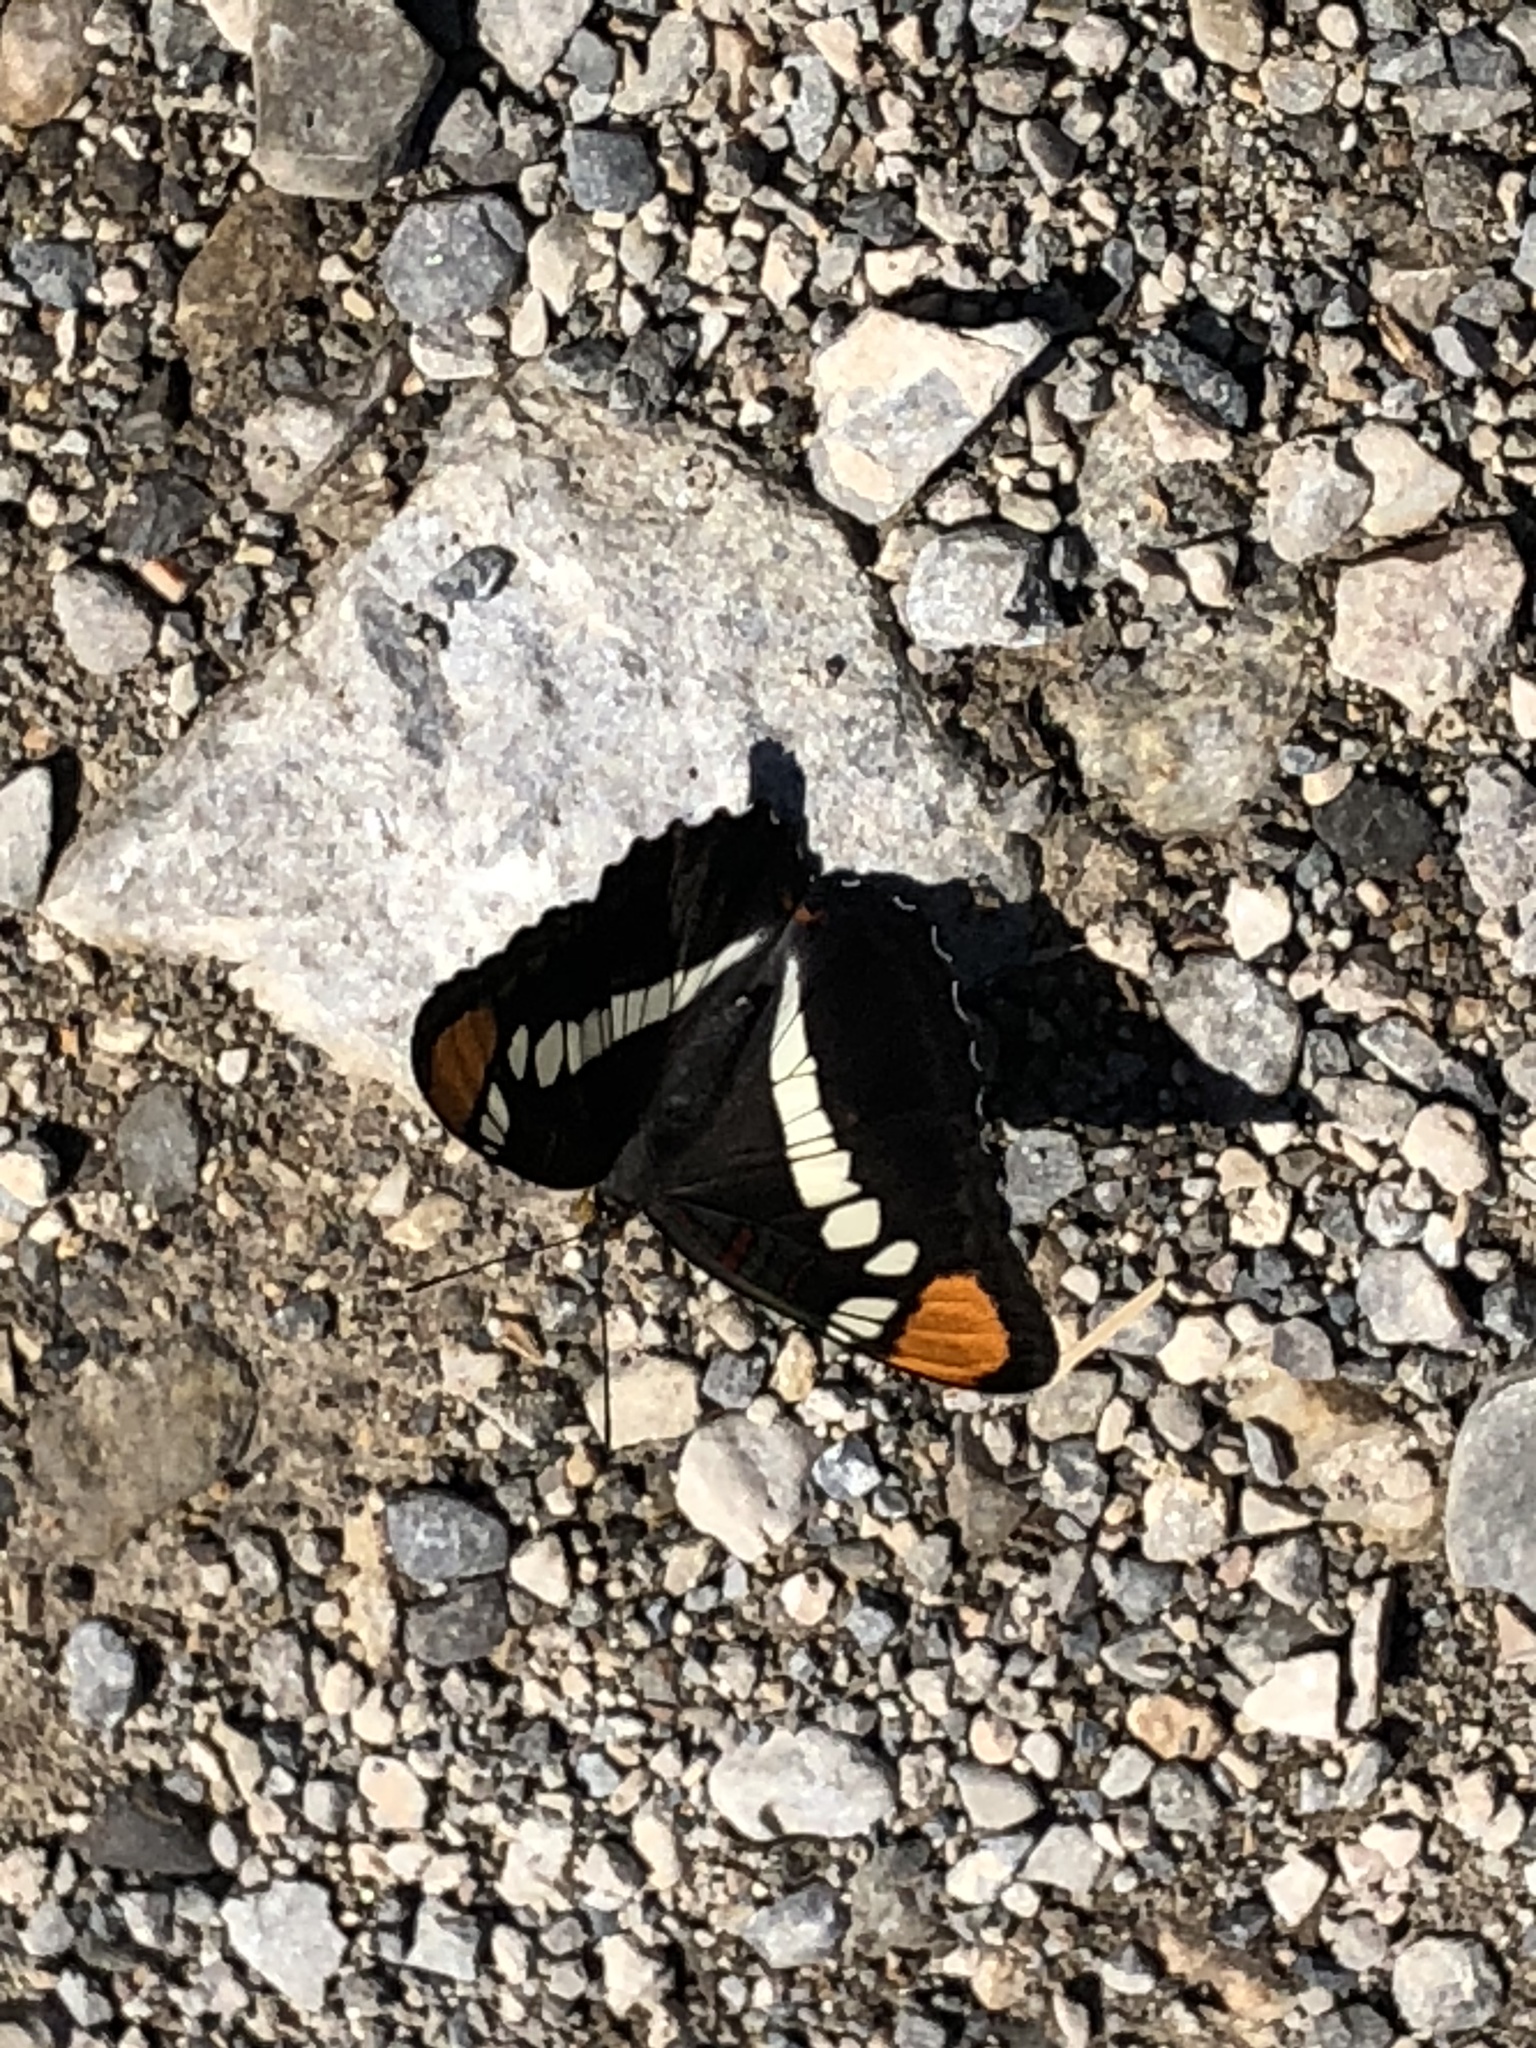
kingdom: Animalia
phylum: Arthropoda
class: Insecta
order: Lepidoptera
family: Nymphalidae
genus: Limenitis
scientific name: Limenitis bredowii
